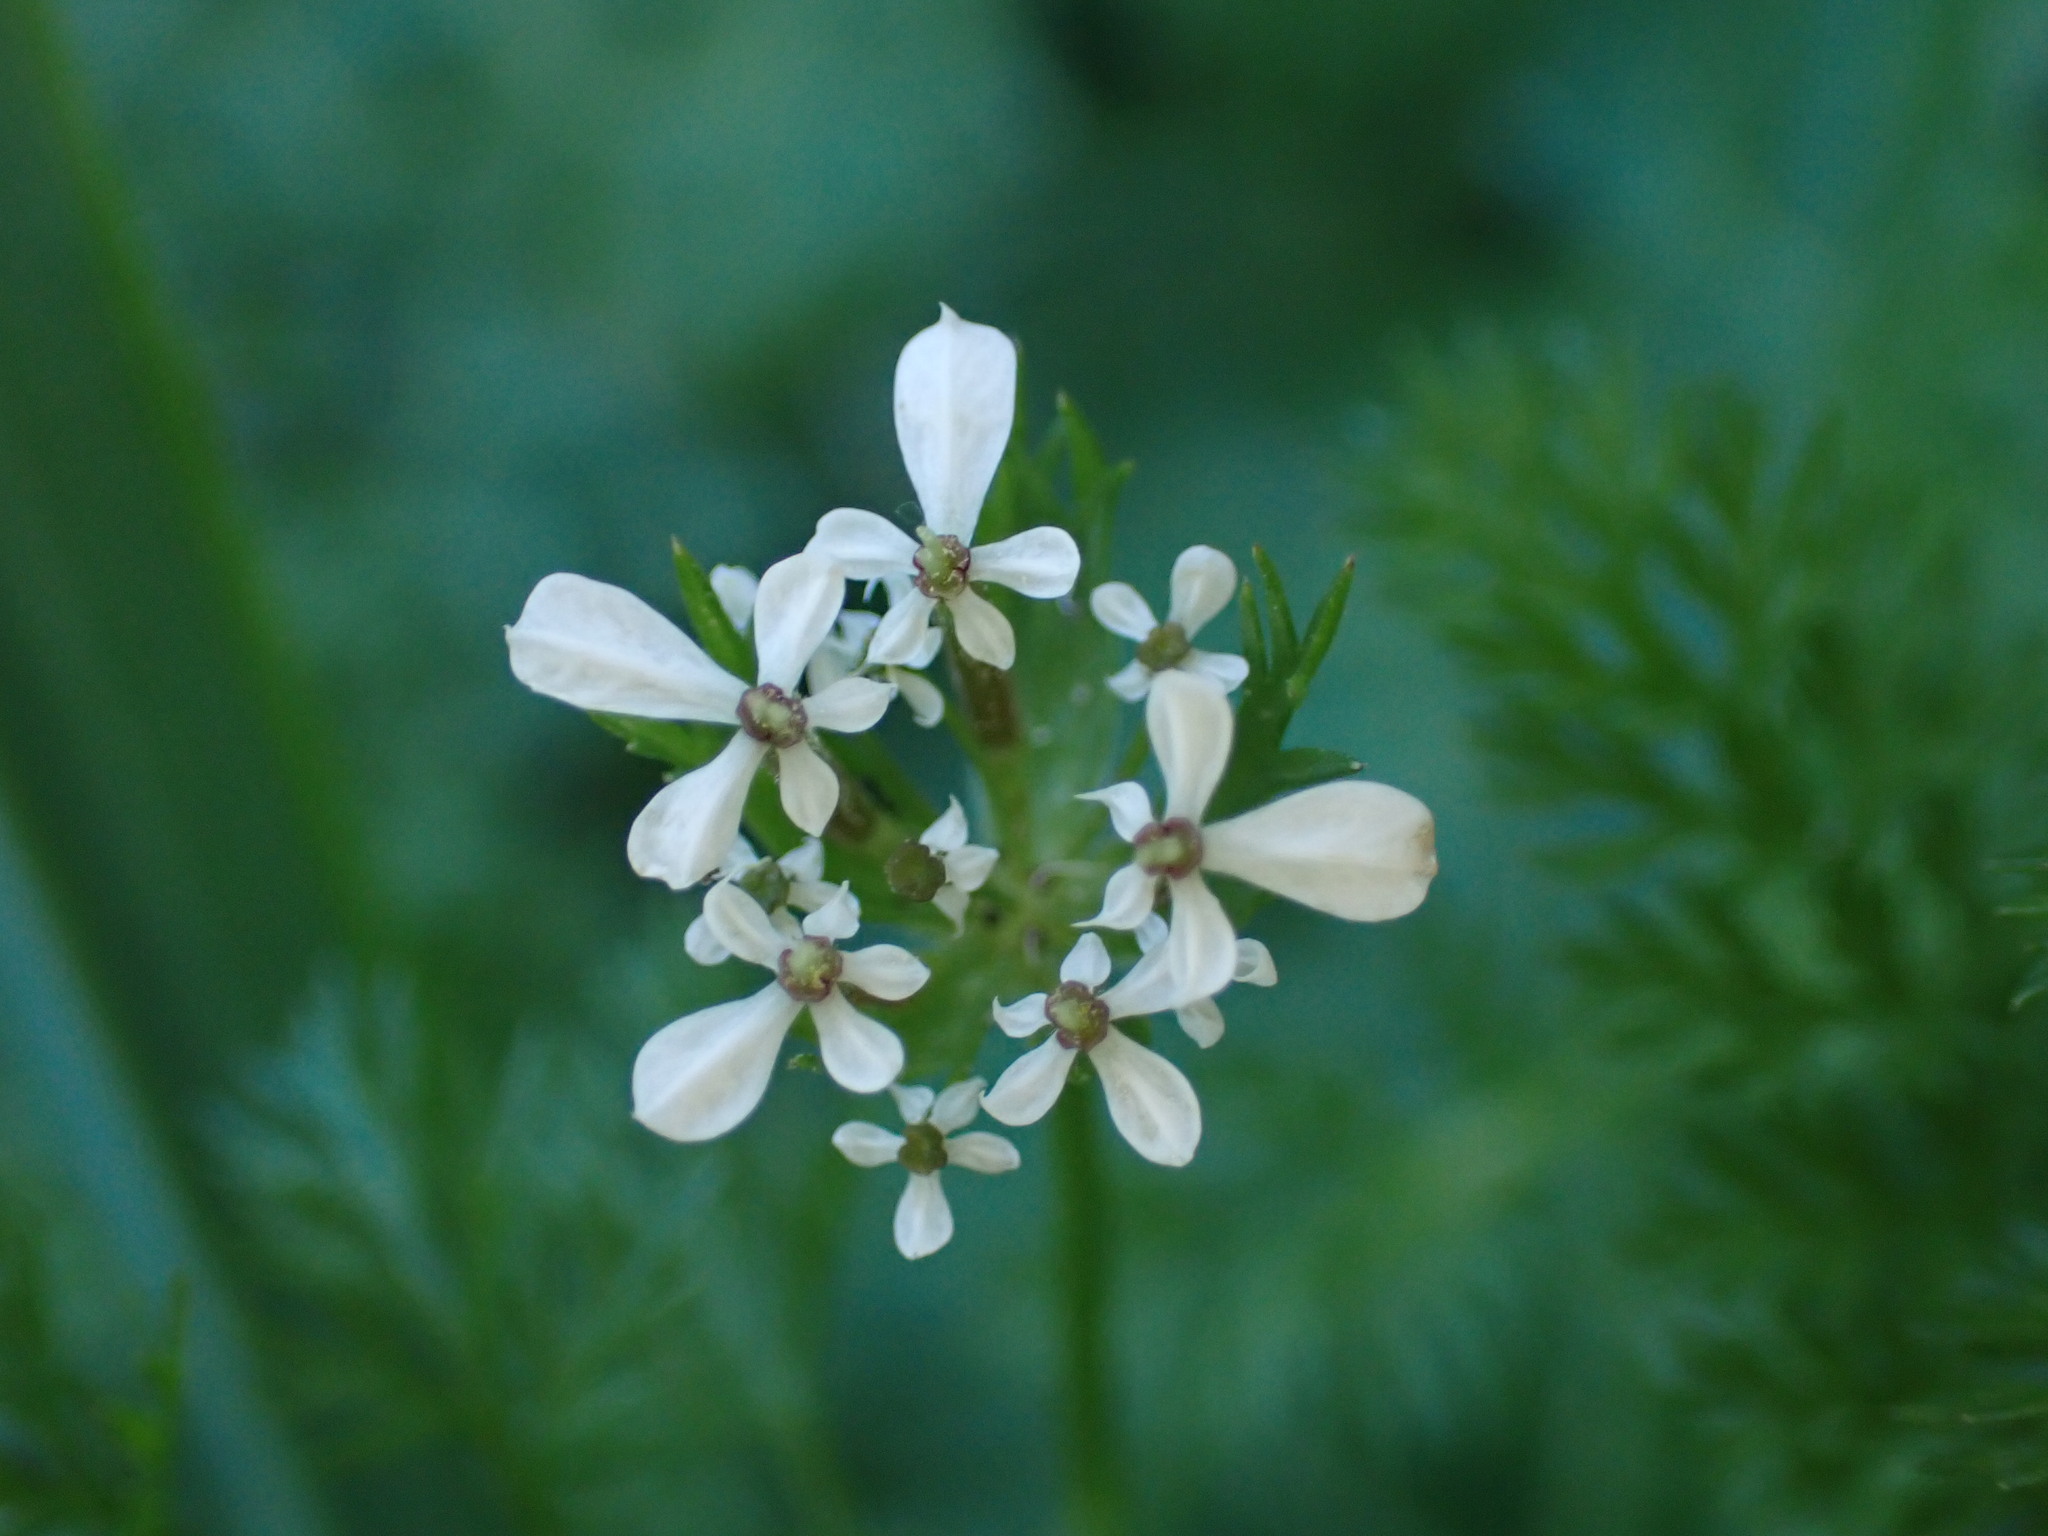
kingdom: Plantae
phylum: Tracheophyta
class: Magnoliopsida
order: Apiales
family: Apiaceae
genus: Scandix
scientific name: Scandix pecten-veneris
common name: Shepherd's-needle
